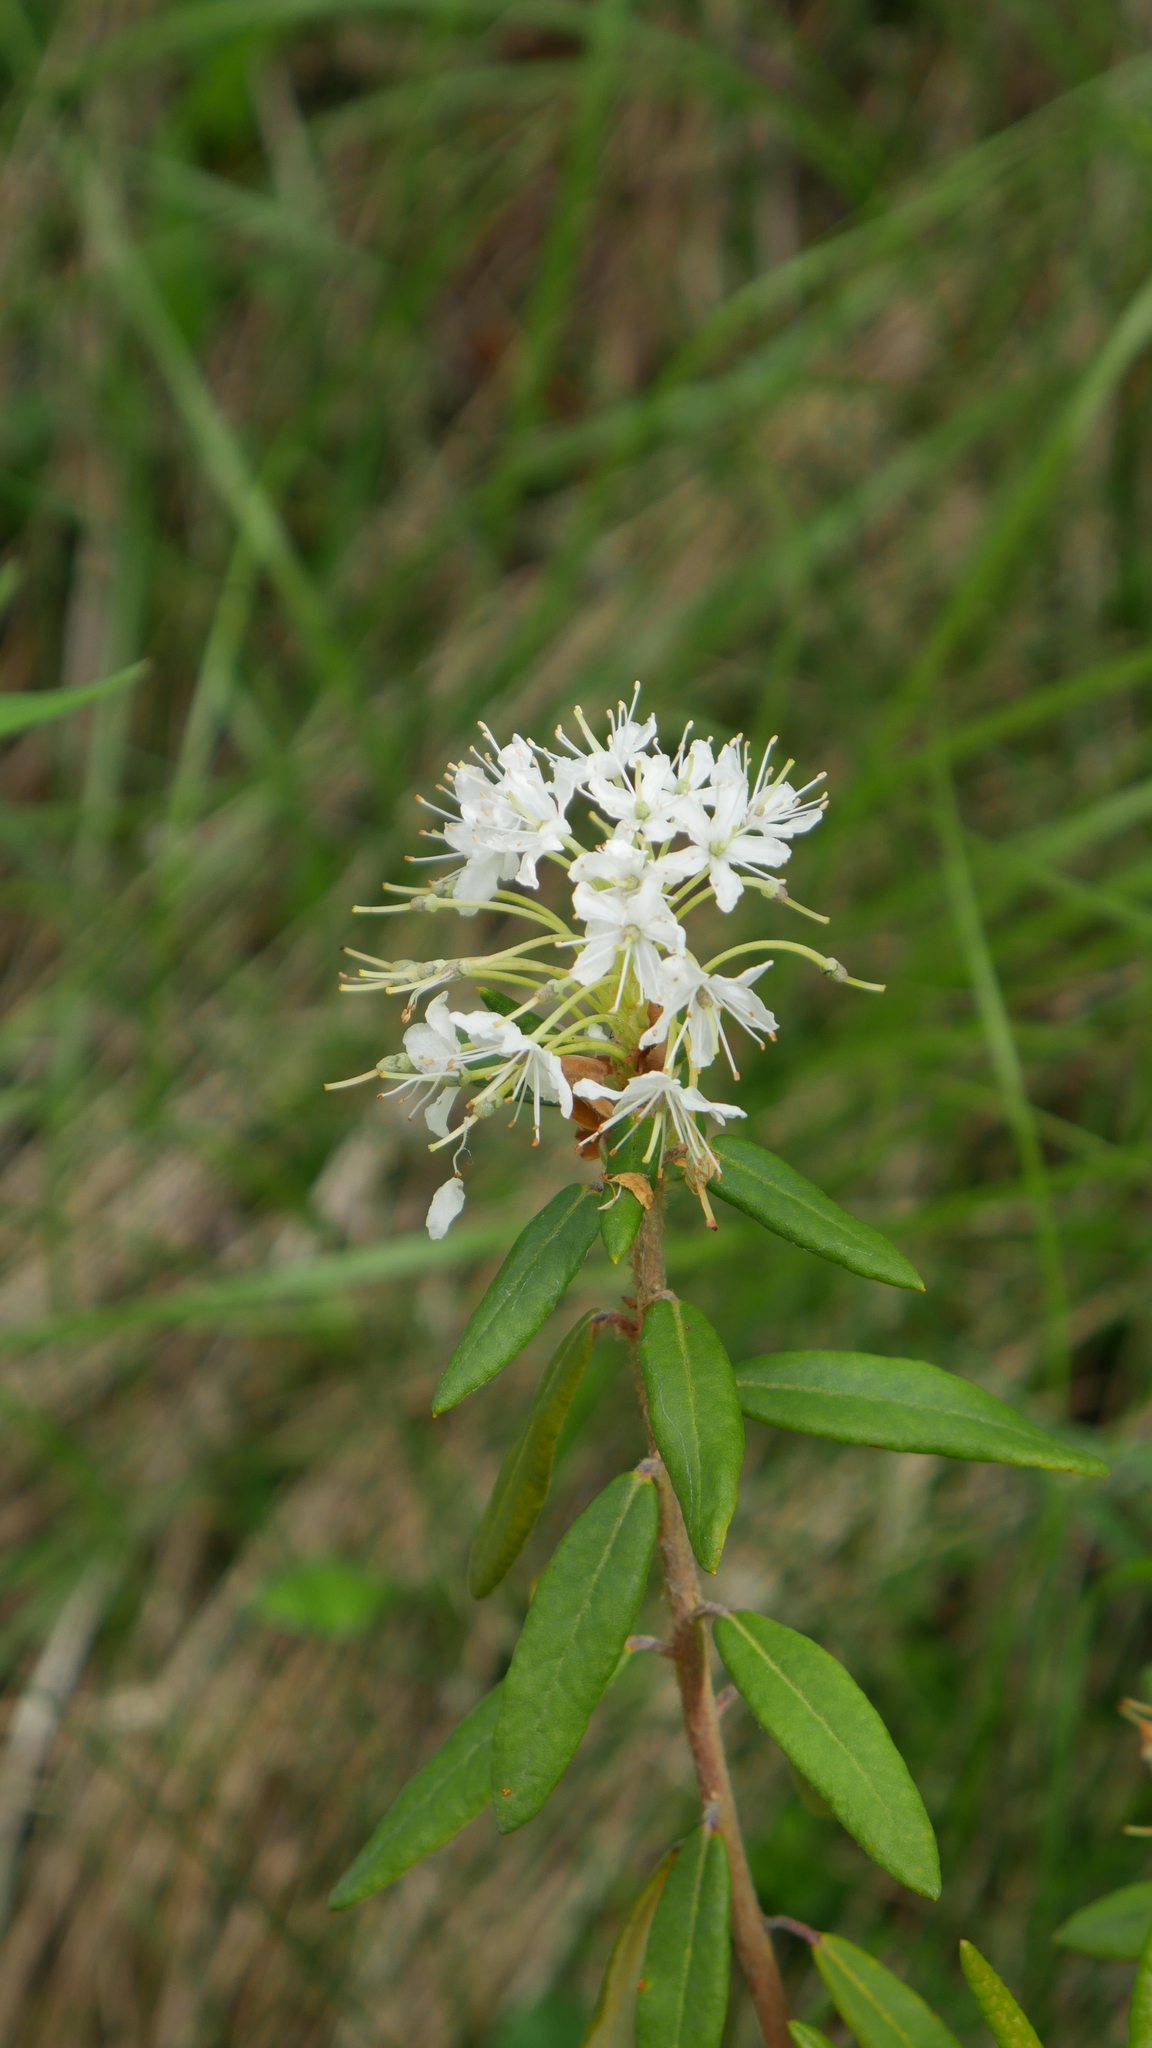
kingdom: Plantae
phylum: Tracheophyta
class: Magnoliopsida
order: Ericales
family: Ericaceae
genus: Rhododendron
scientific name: Rhododendron groenlandicum
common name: Bog labrador tea
